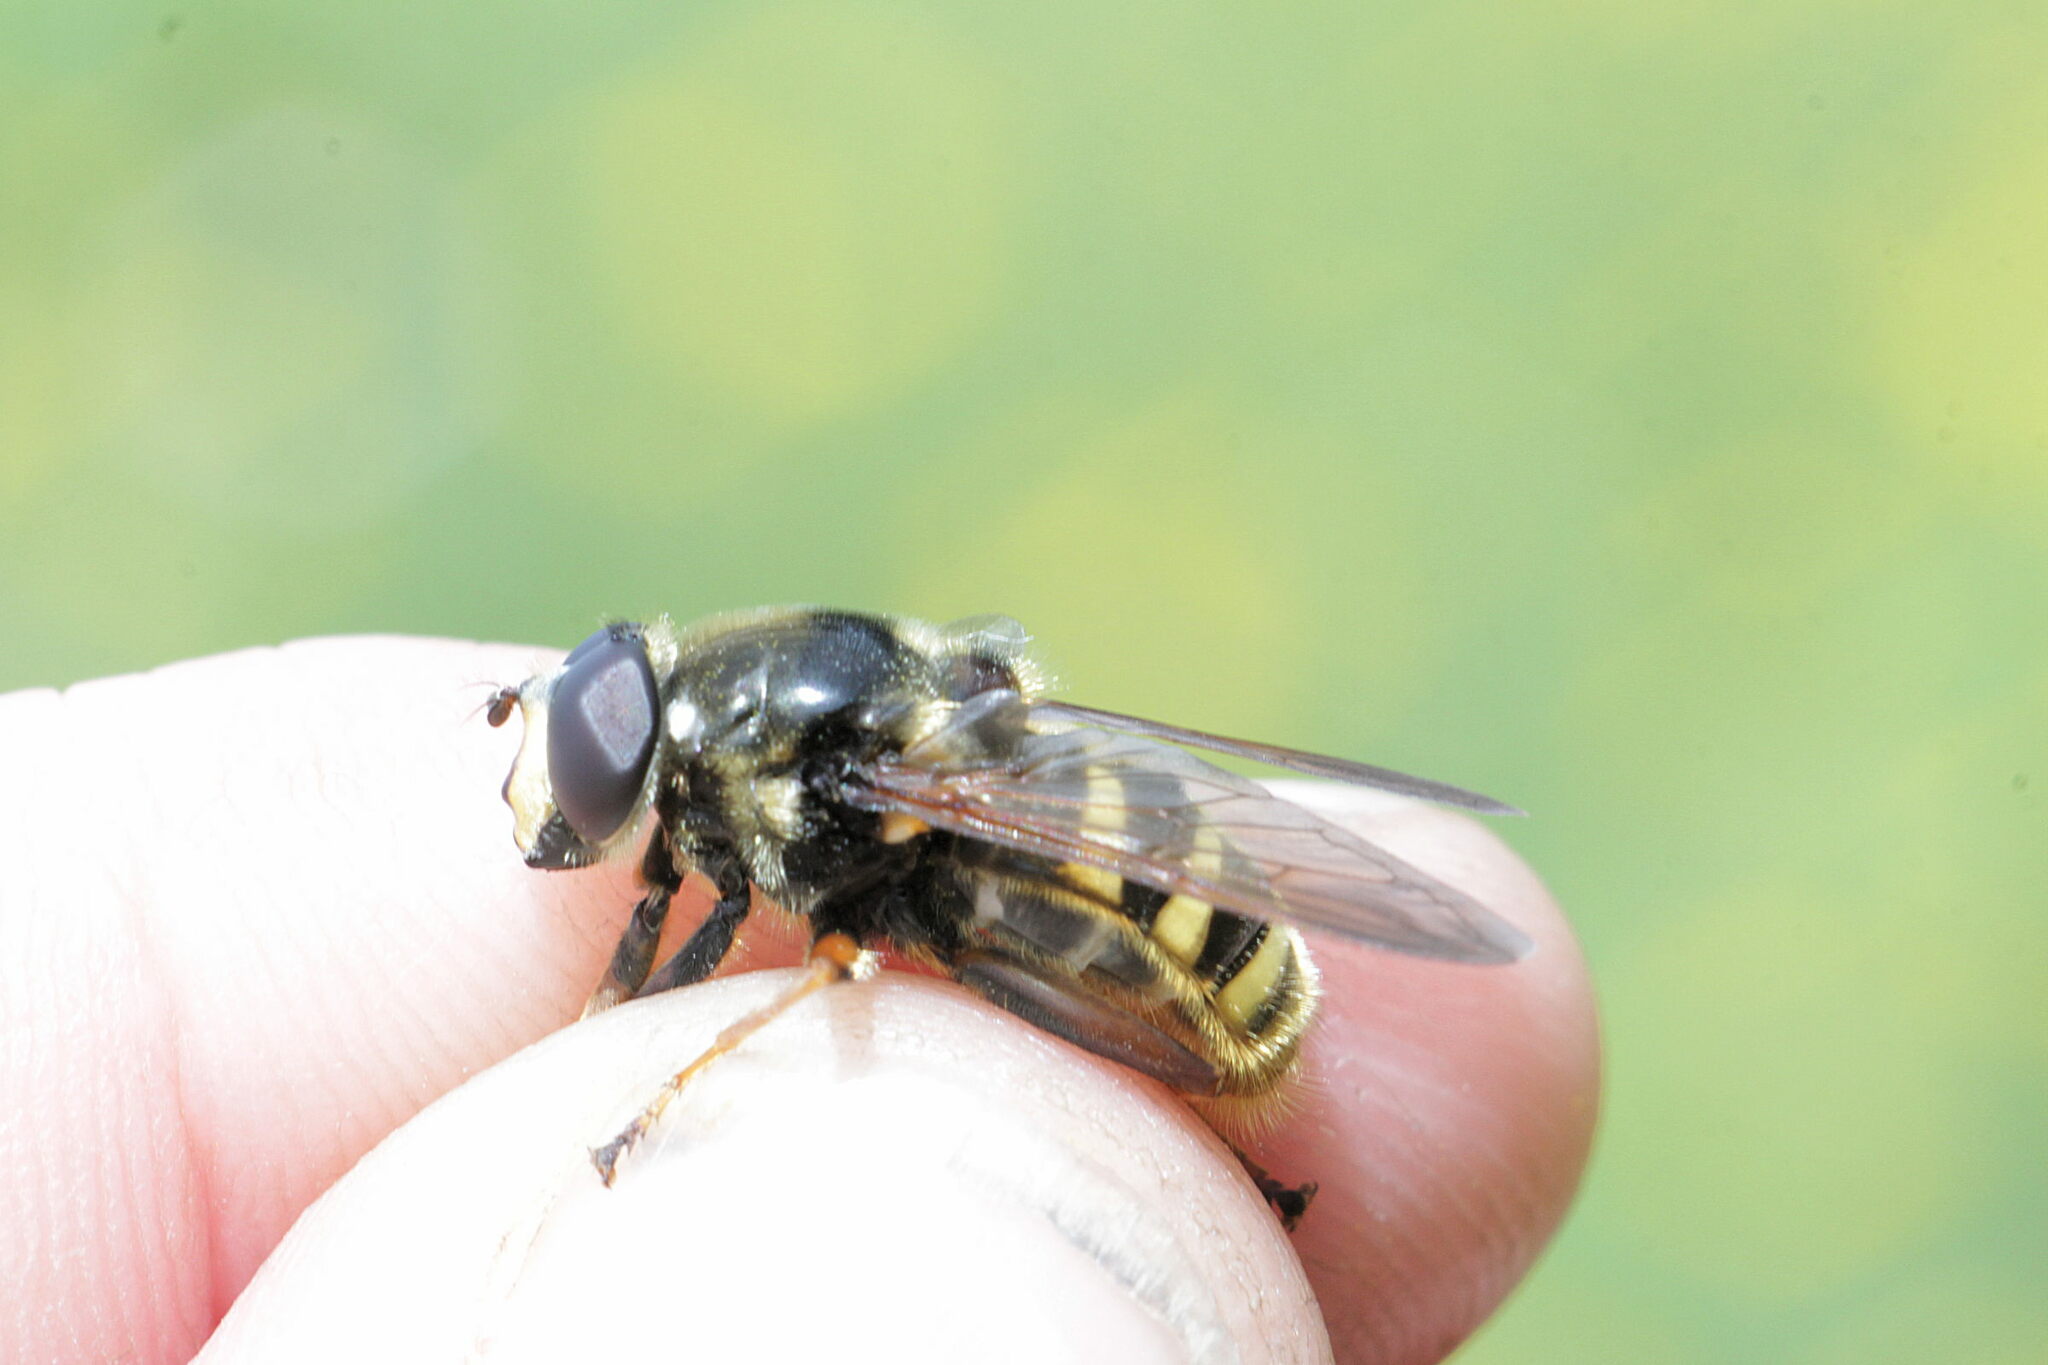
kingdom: Animalia
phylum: Arthropoda
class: Insecta
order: Diptera
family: Syrphidae
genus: Sericomyia
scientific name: Sericomyia silentis
